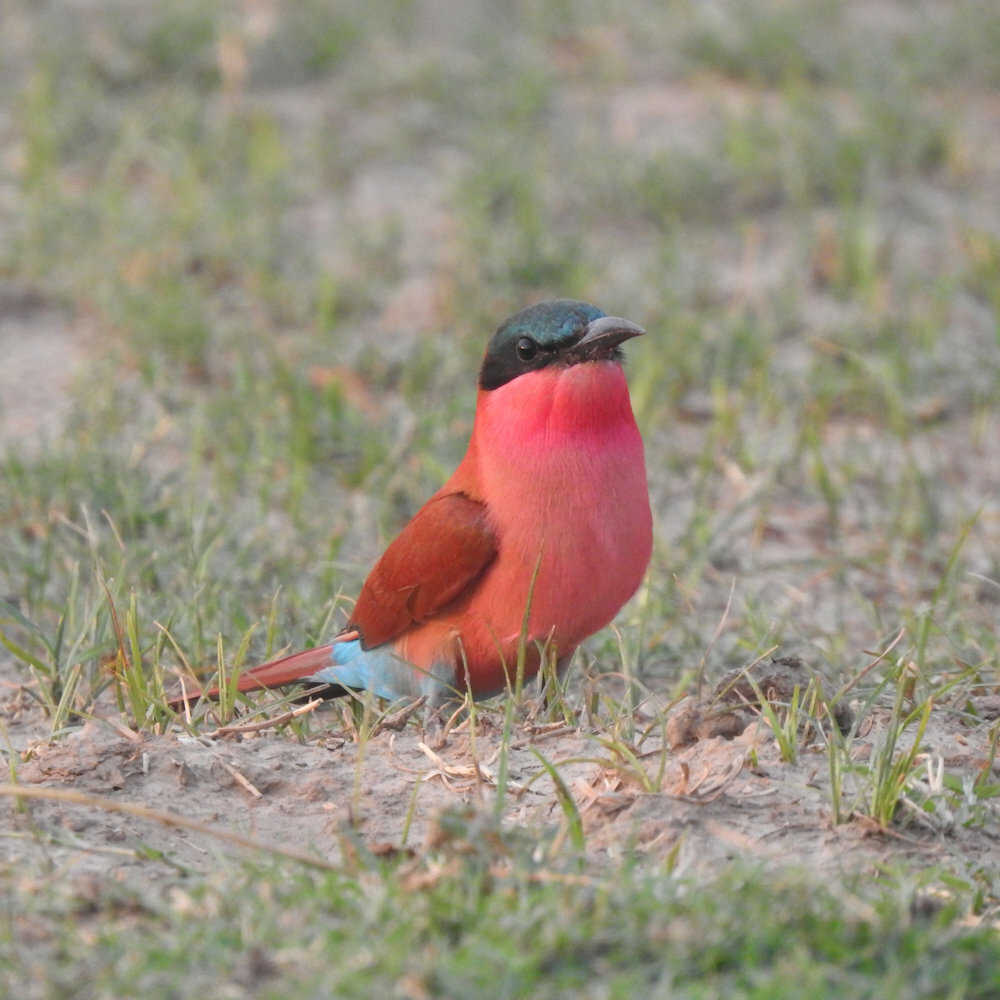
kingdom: Animalia
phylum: Chordata
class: Aves
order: Coraciiformes
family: Meropidae
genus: Merops
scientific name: Merops nubicoides
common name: Southern carmine bee-eater
